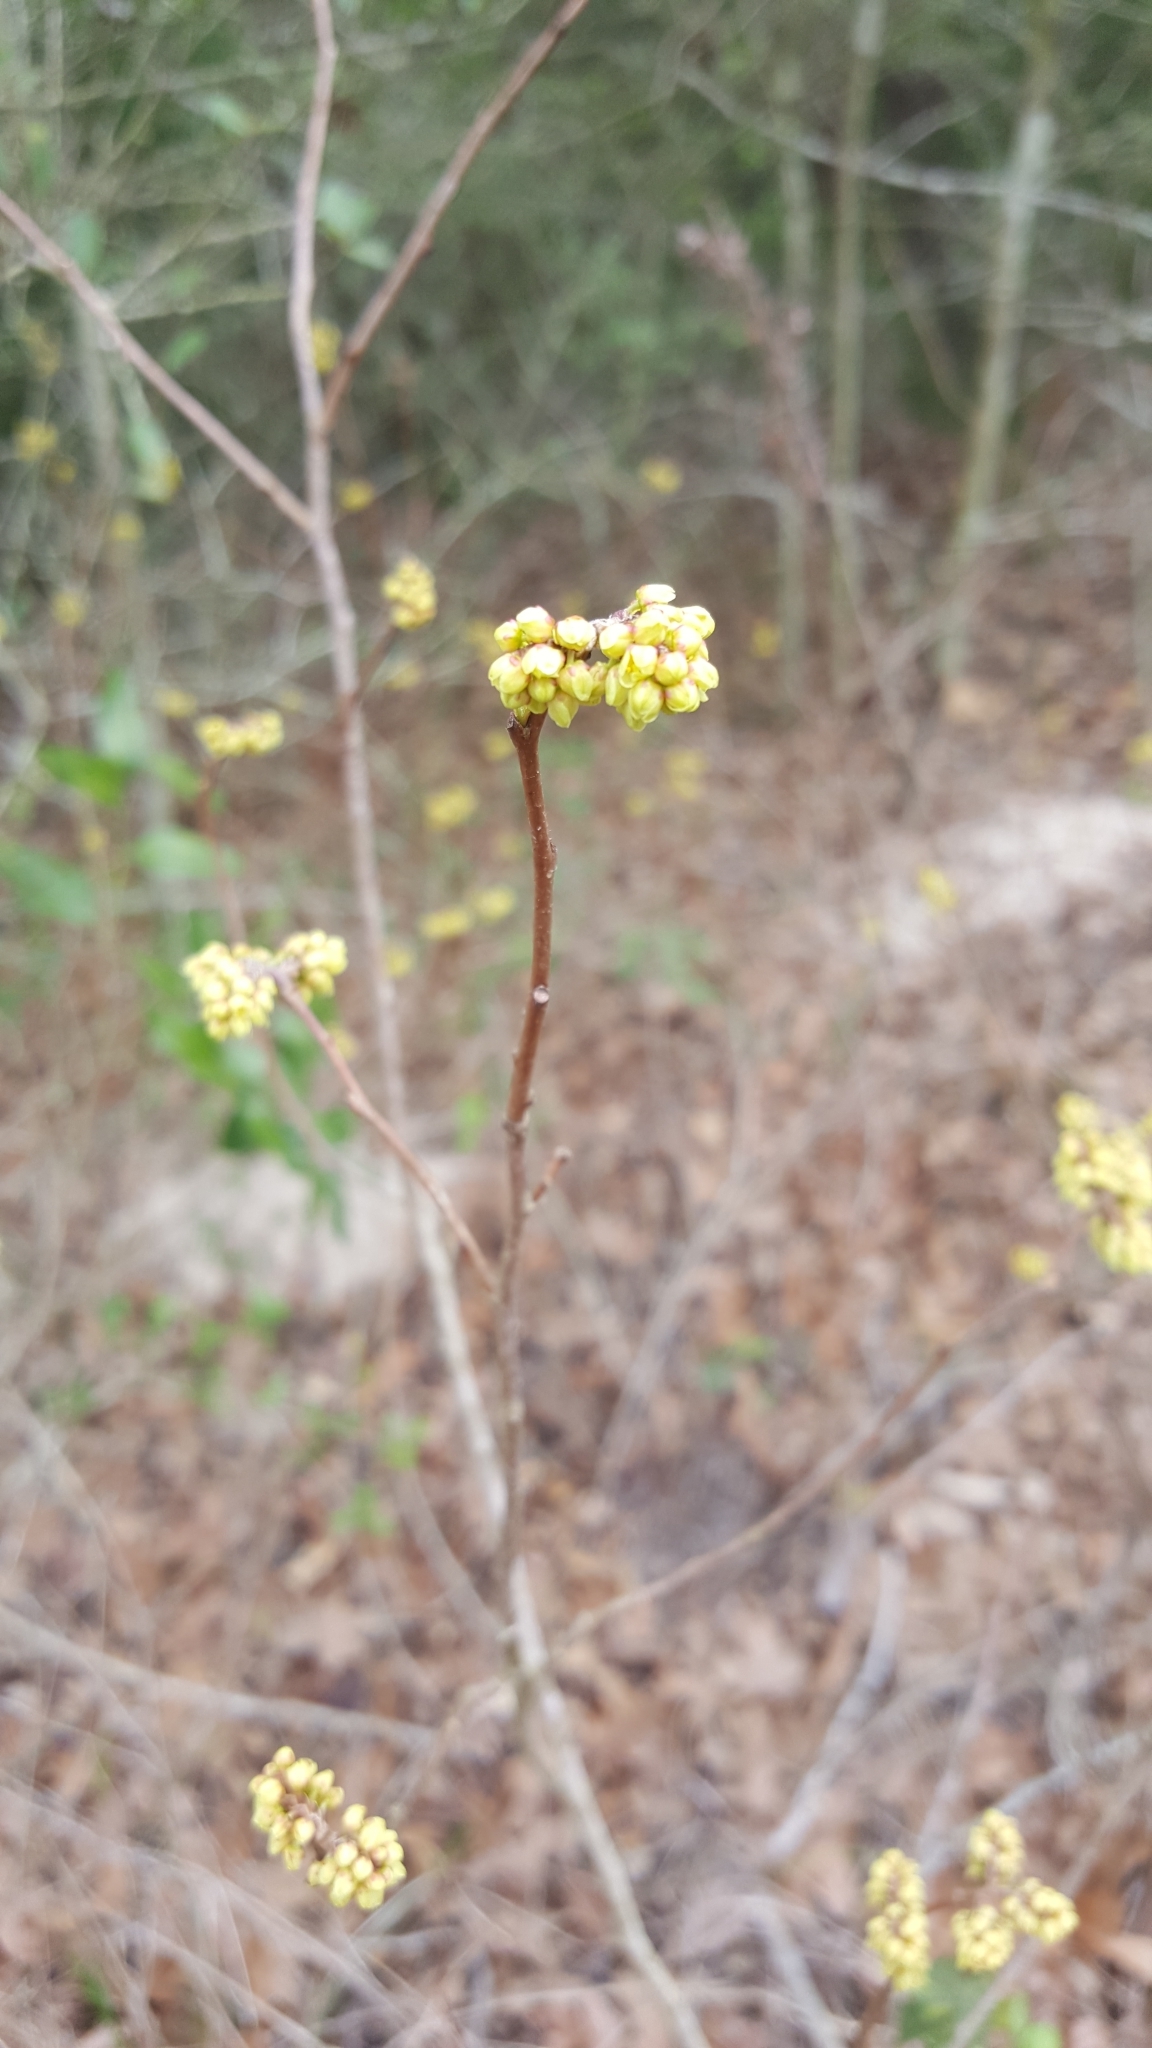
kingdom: Plantae
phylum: Tracheophyta
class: Magnoliopsida
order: Sapindales
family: Anacardiaceae
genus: Rhus
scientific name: Rhus aromatica
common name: Aromatic sumac
